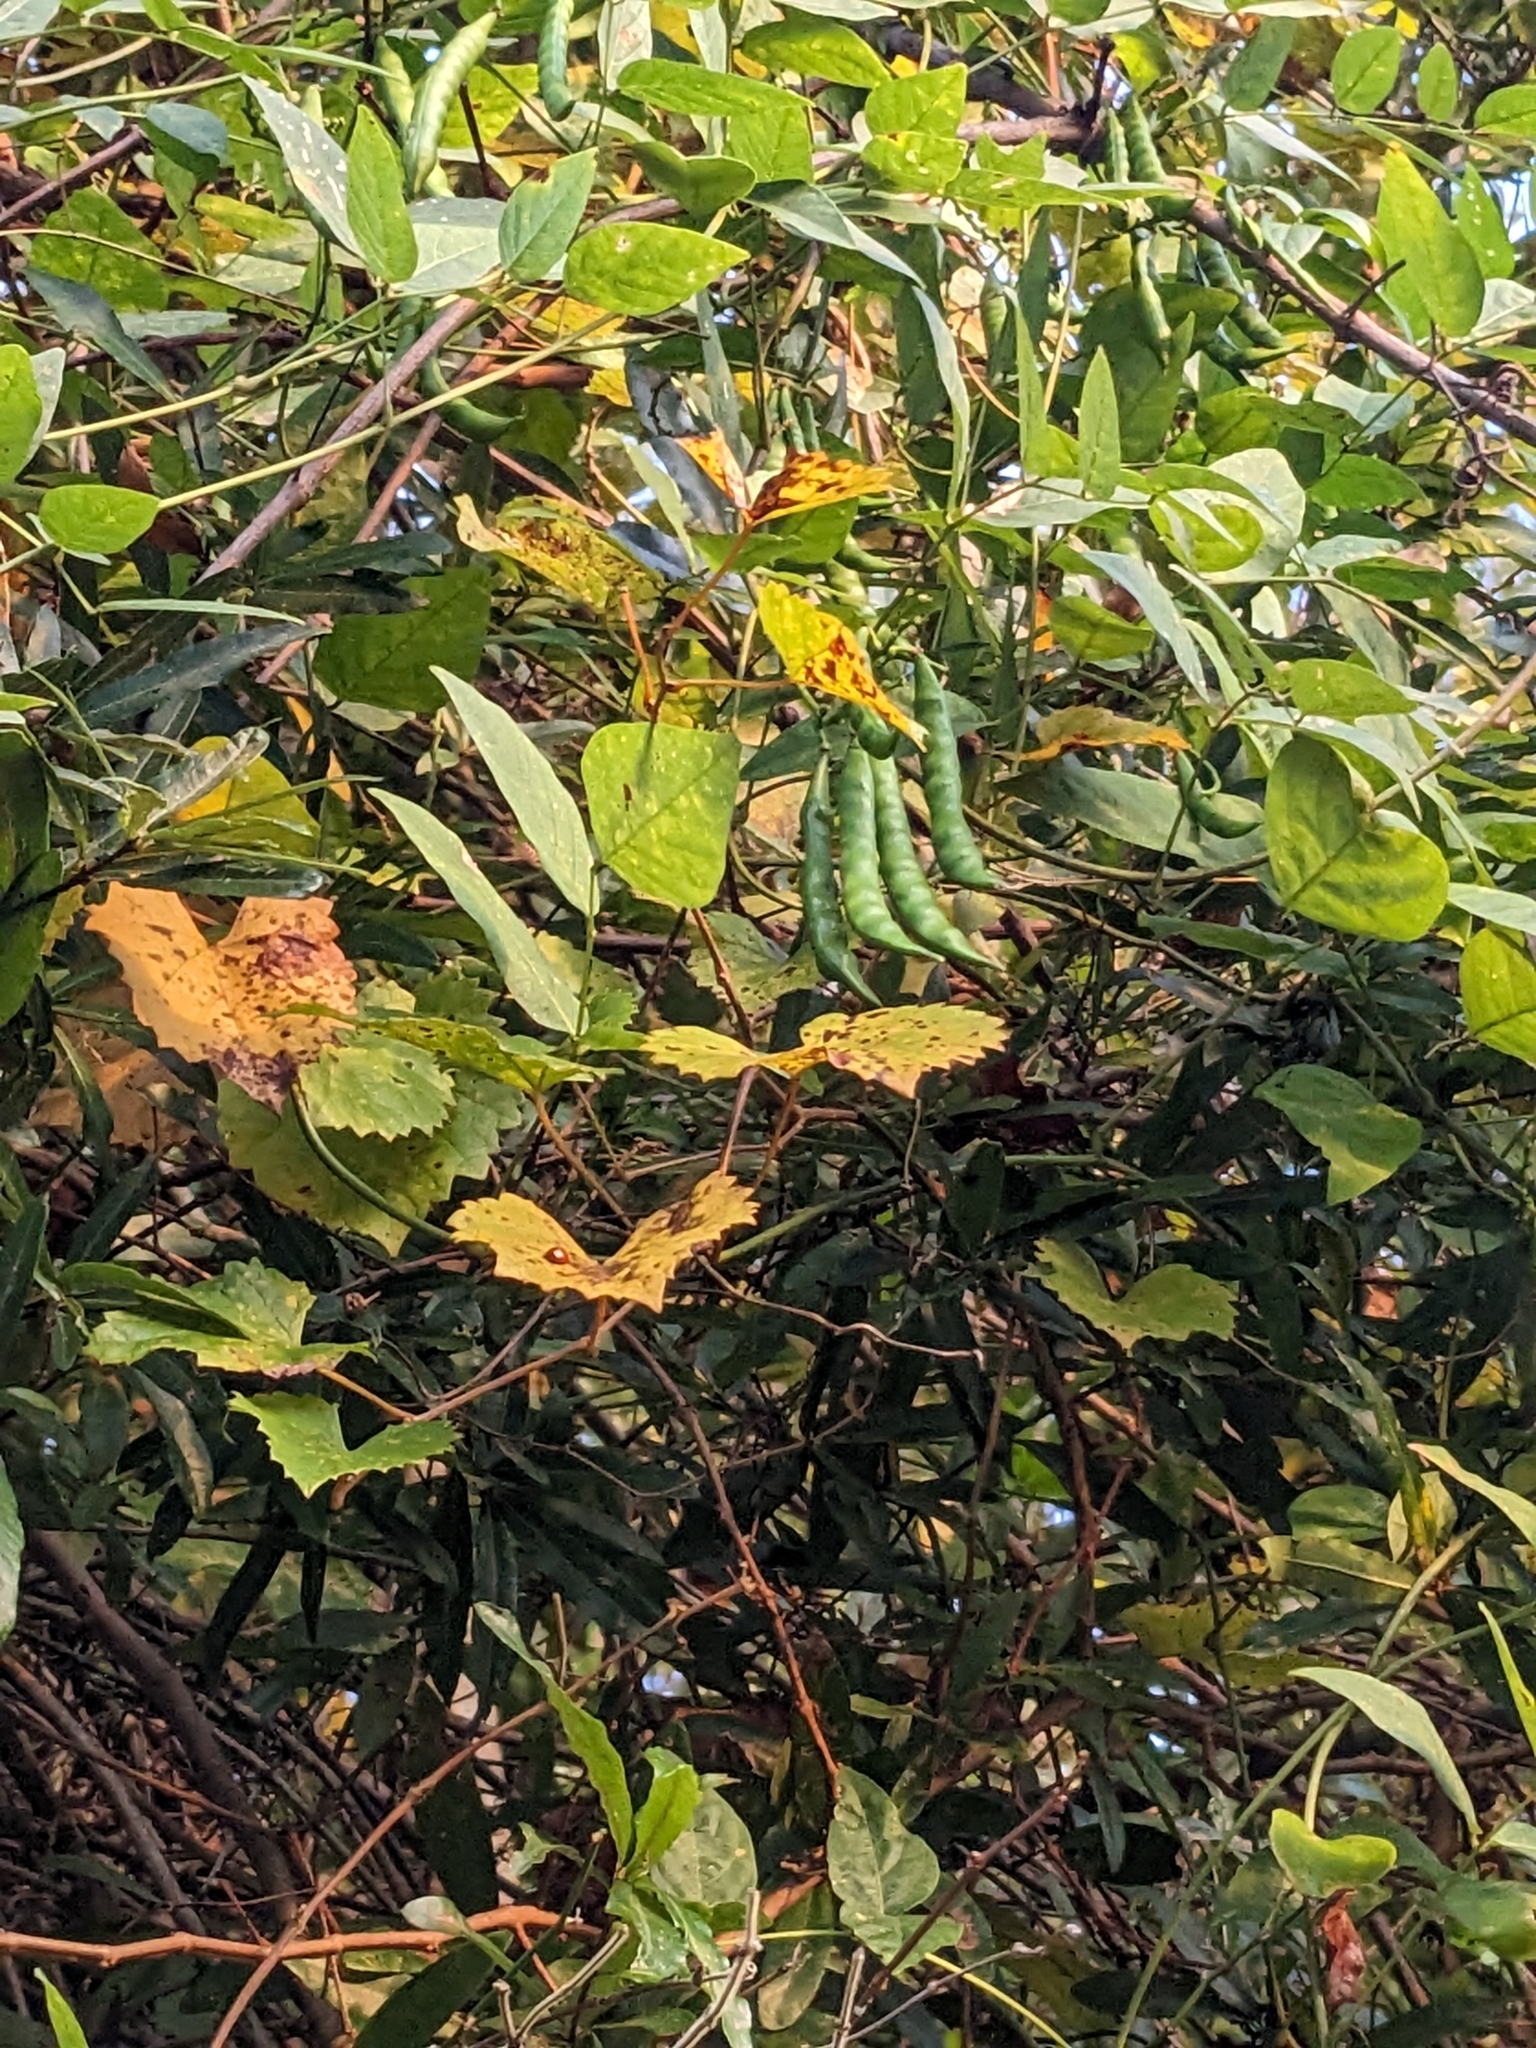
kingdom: Plantae
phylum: Tracheophyta
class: Magnoliopsida
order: Fabales
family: Fabaceae
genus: Apios
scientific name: Apios americana
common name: American potato-bean
